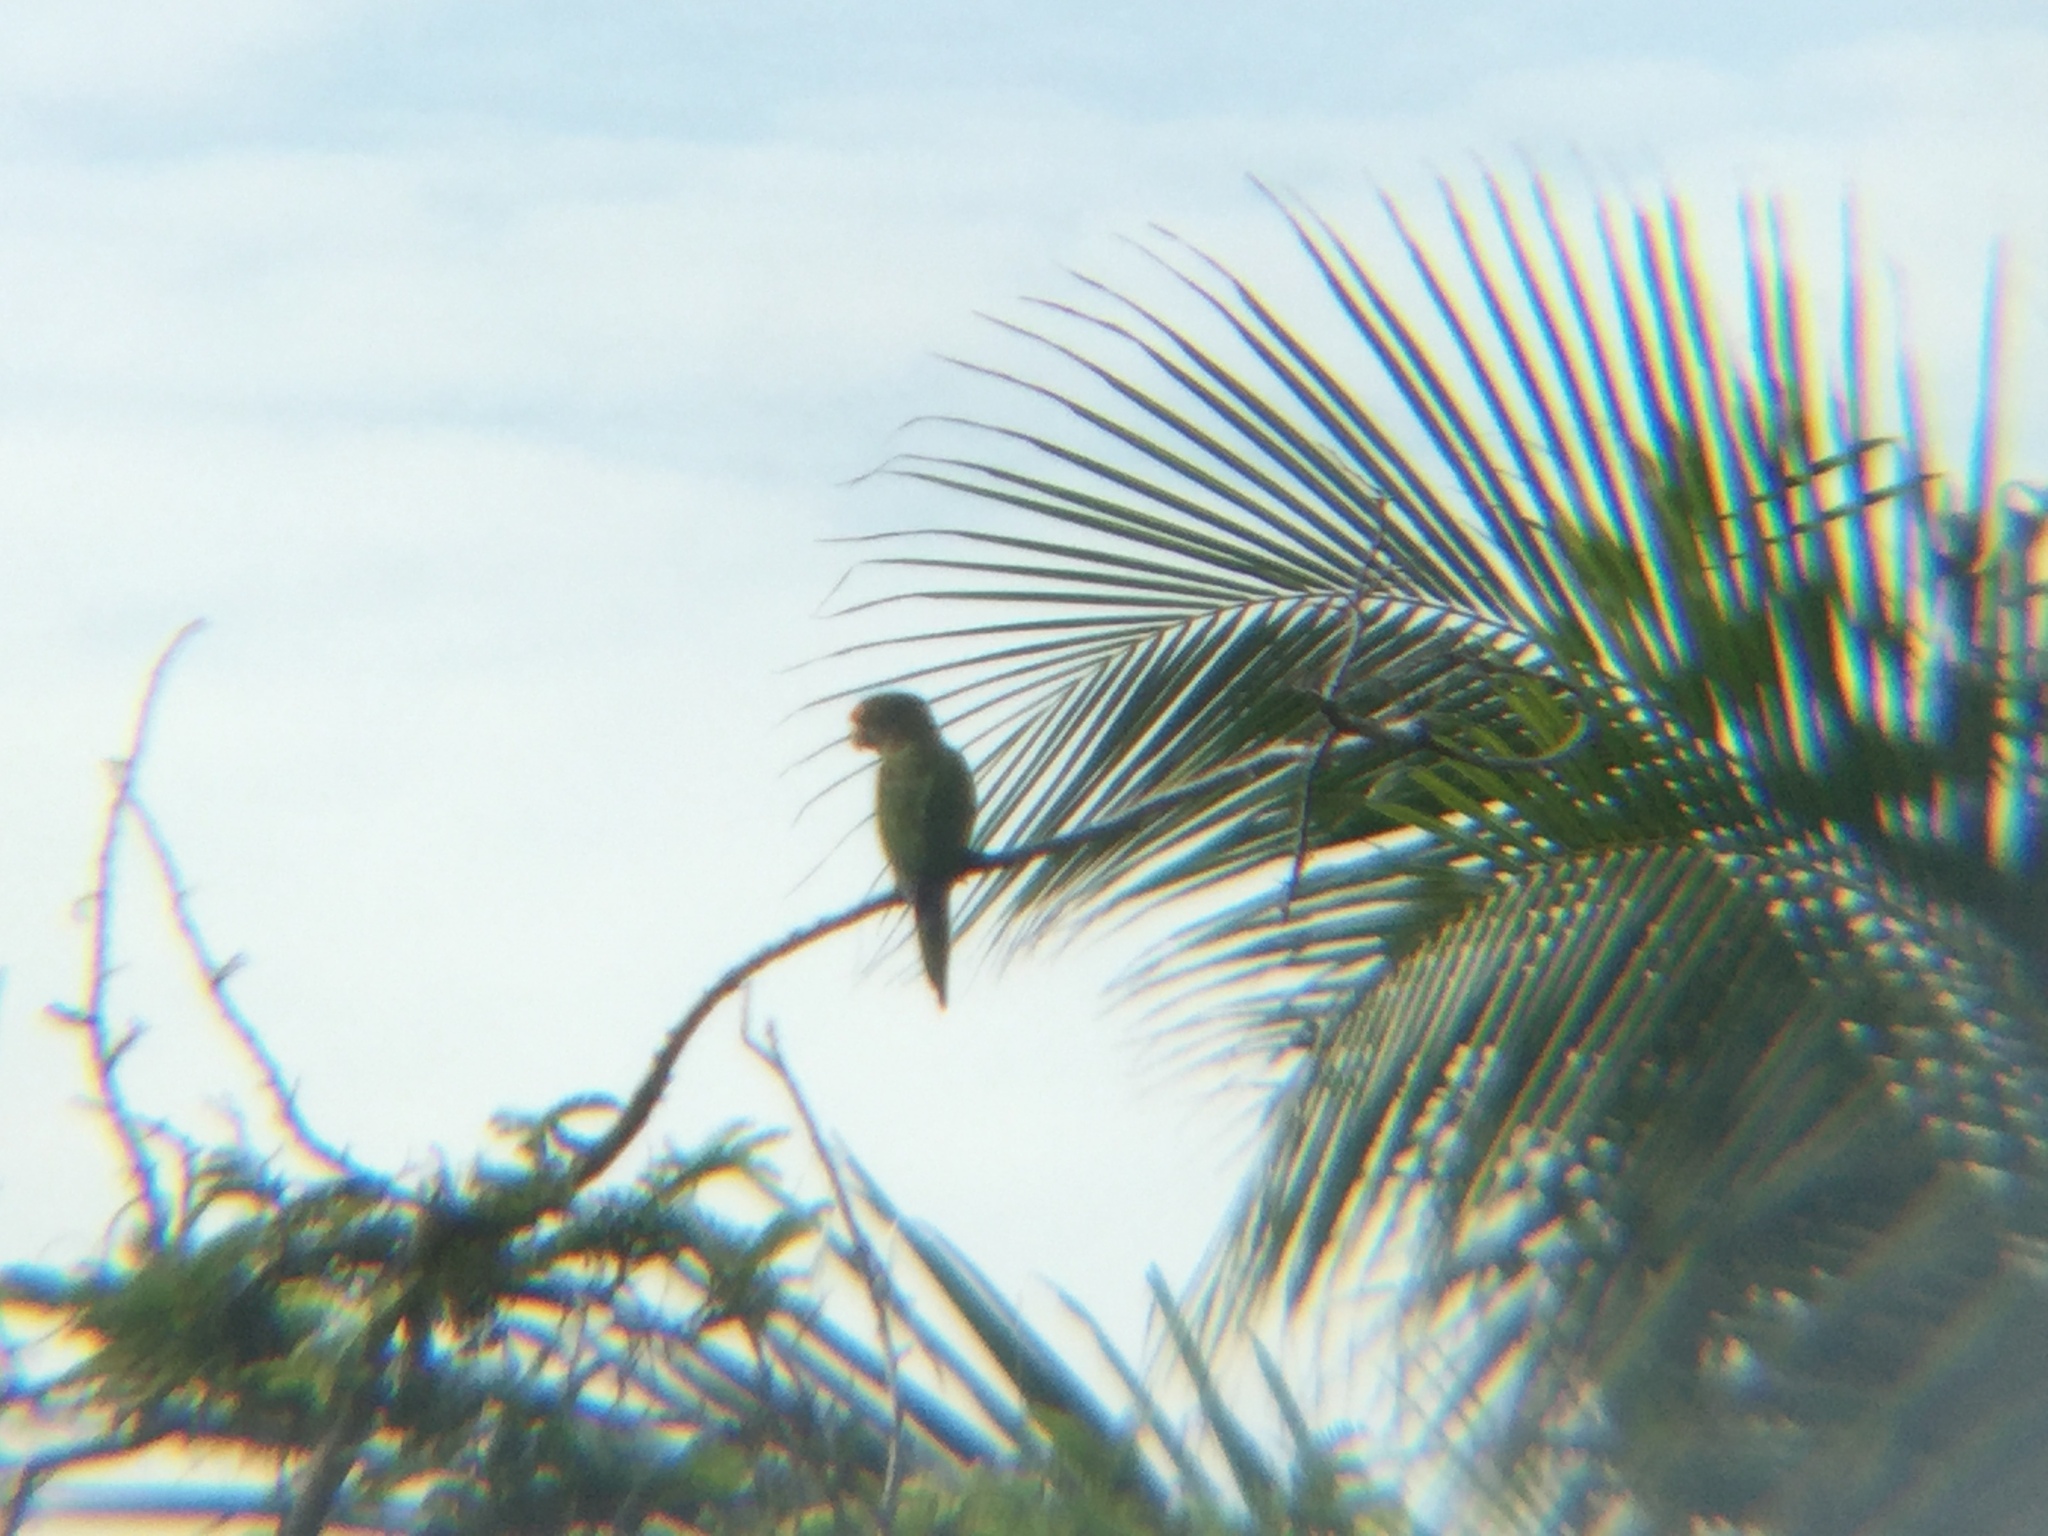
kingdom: Animalia
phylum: Chordata
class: Aves
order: Psittaciformes
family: Psittacidae
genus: Aratinga
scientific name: Aratinga canicularis
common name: Orange-fronted parakeet
